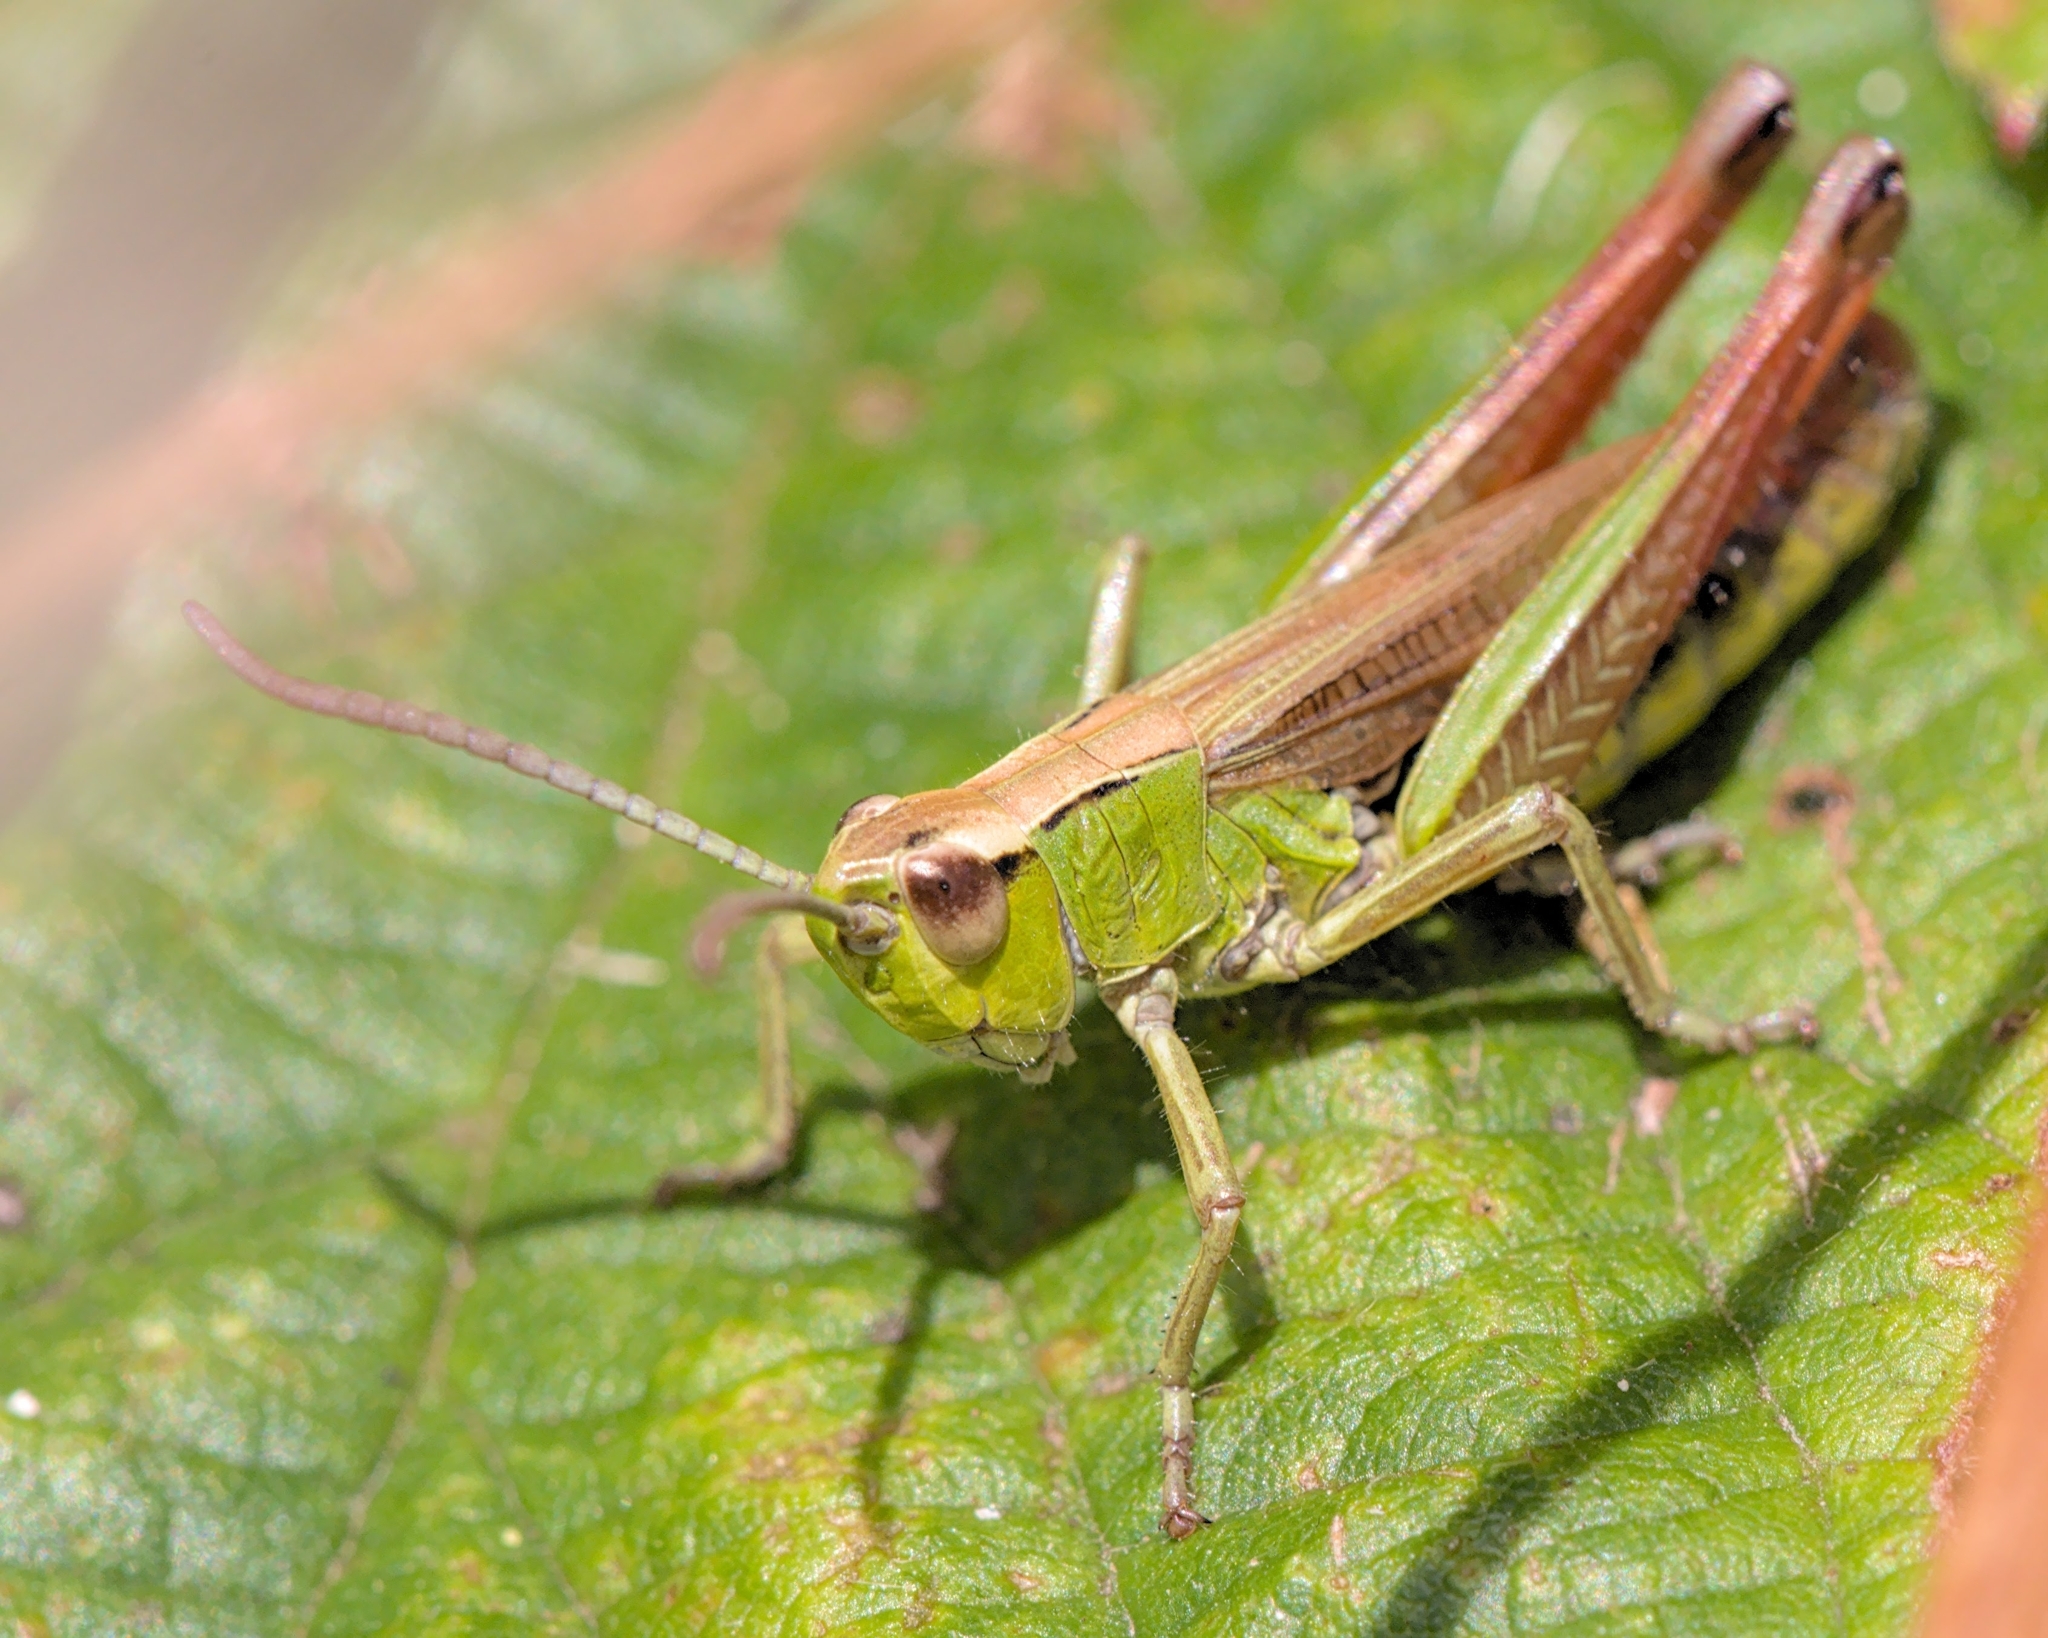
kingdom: Animalia
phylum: Arthropoda
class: Insecta
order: Orthoptera
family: Acrididae
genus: Pseudochorthippus
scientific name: Pseudochorthippus parallelus
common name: Meadow grasshopper
